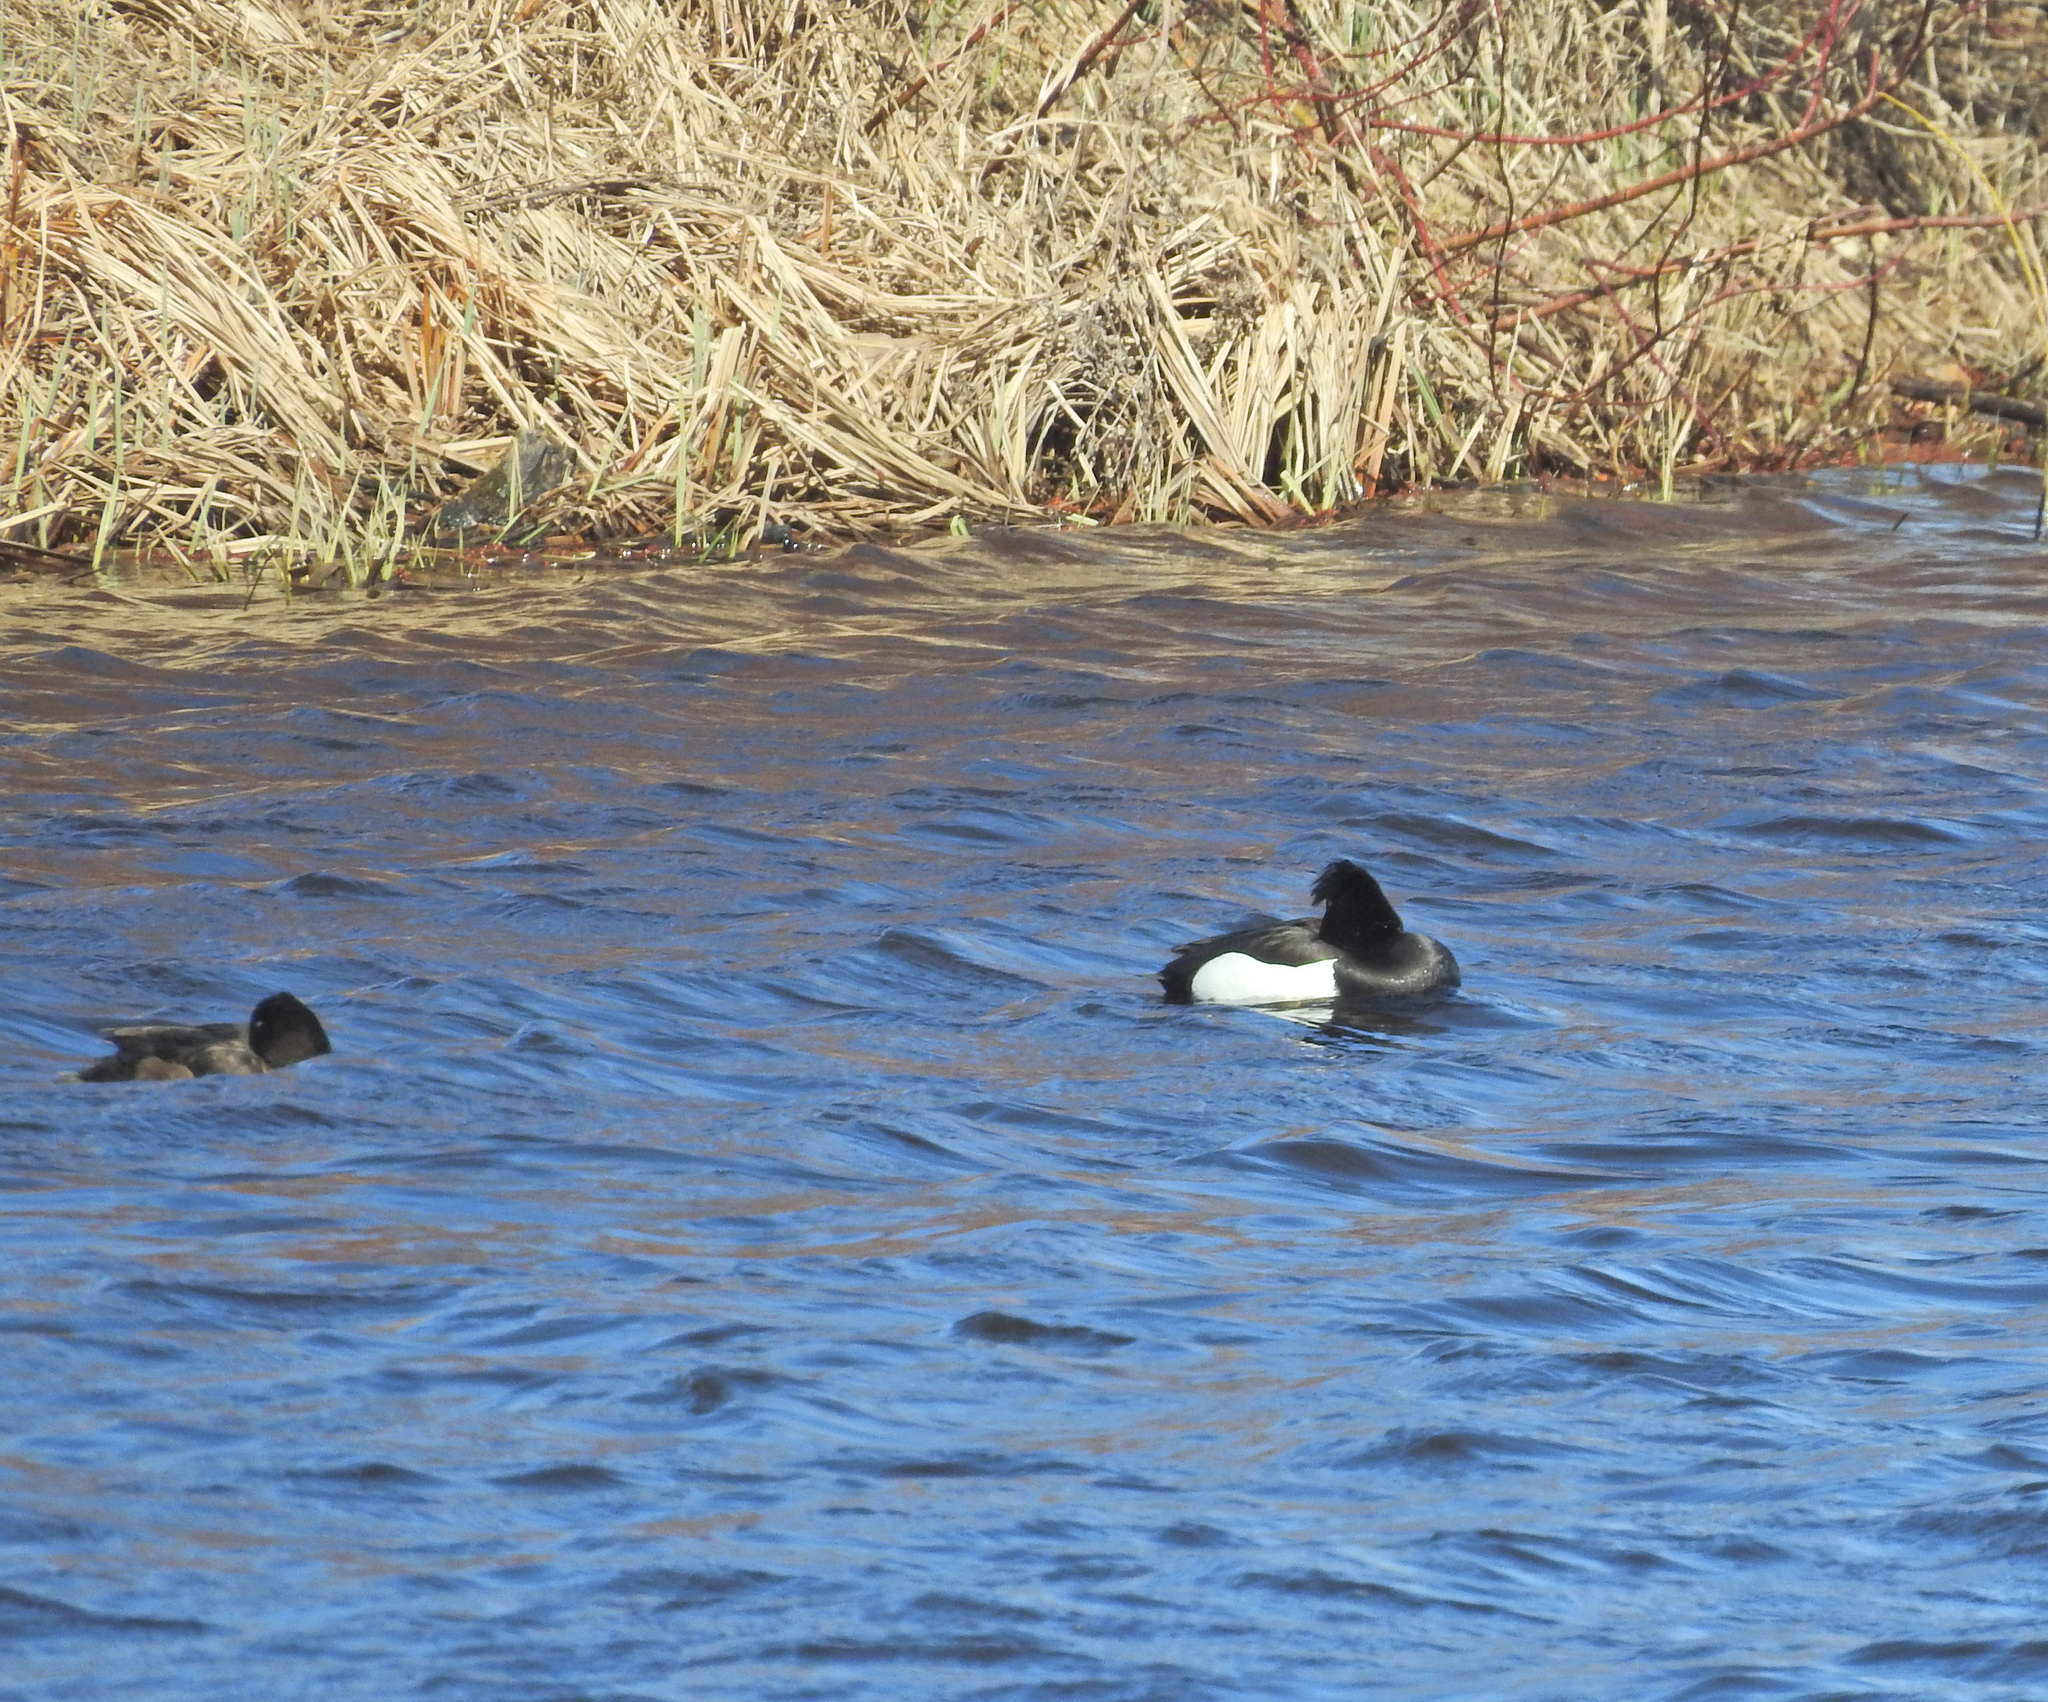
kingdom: Animalia
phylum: Chordata
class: Aves
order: Anseriformes
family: Anatidae
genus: Aythya
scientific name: Aythya fuligula
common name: Tufted duck
